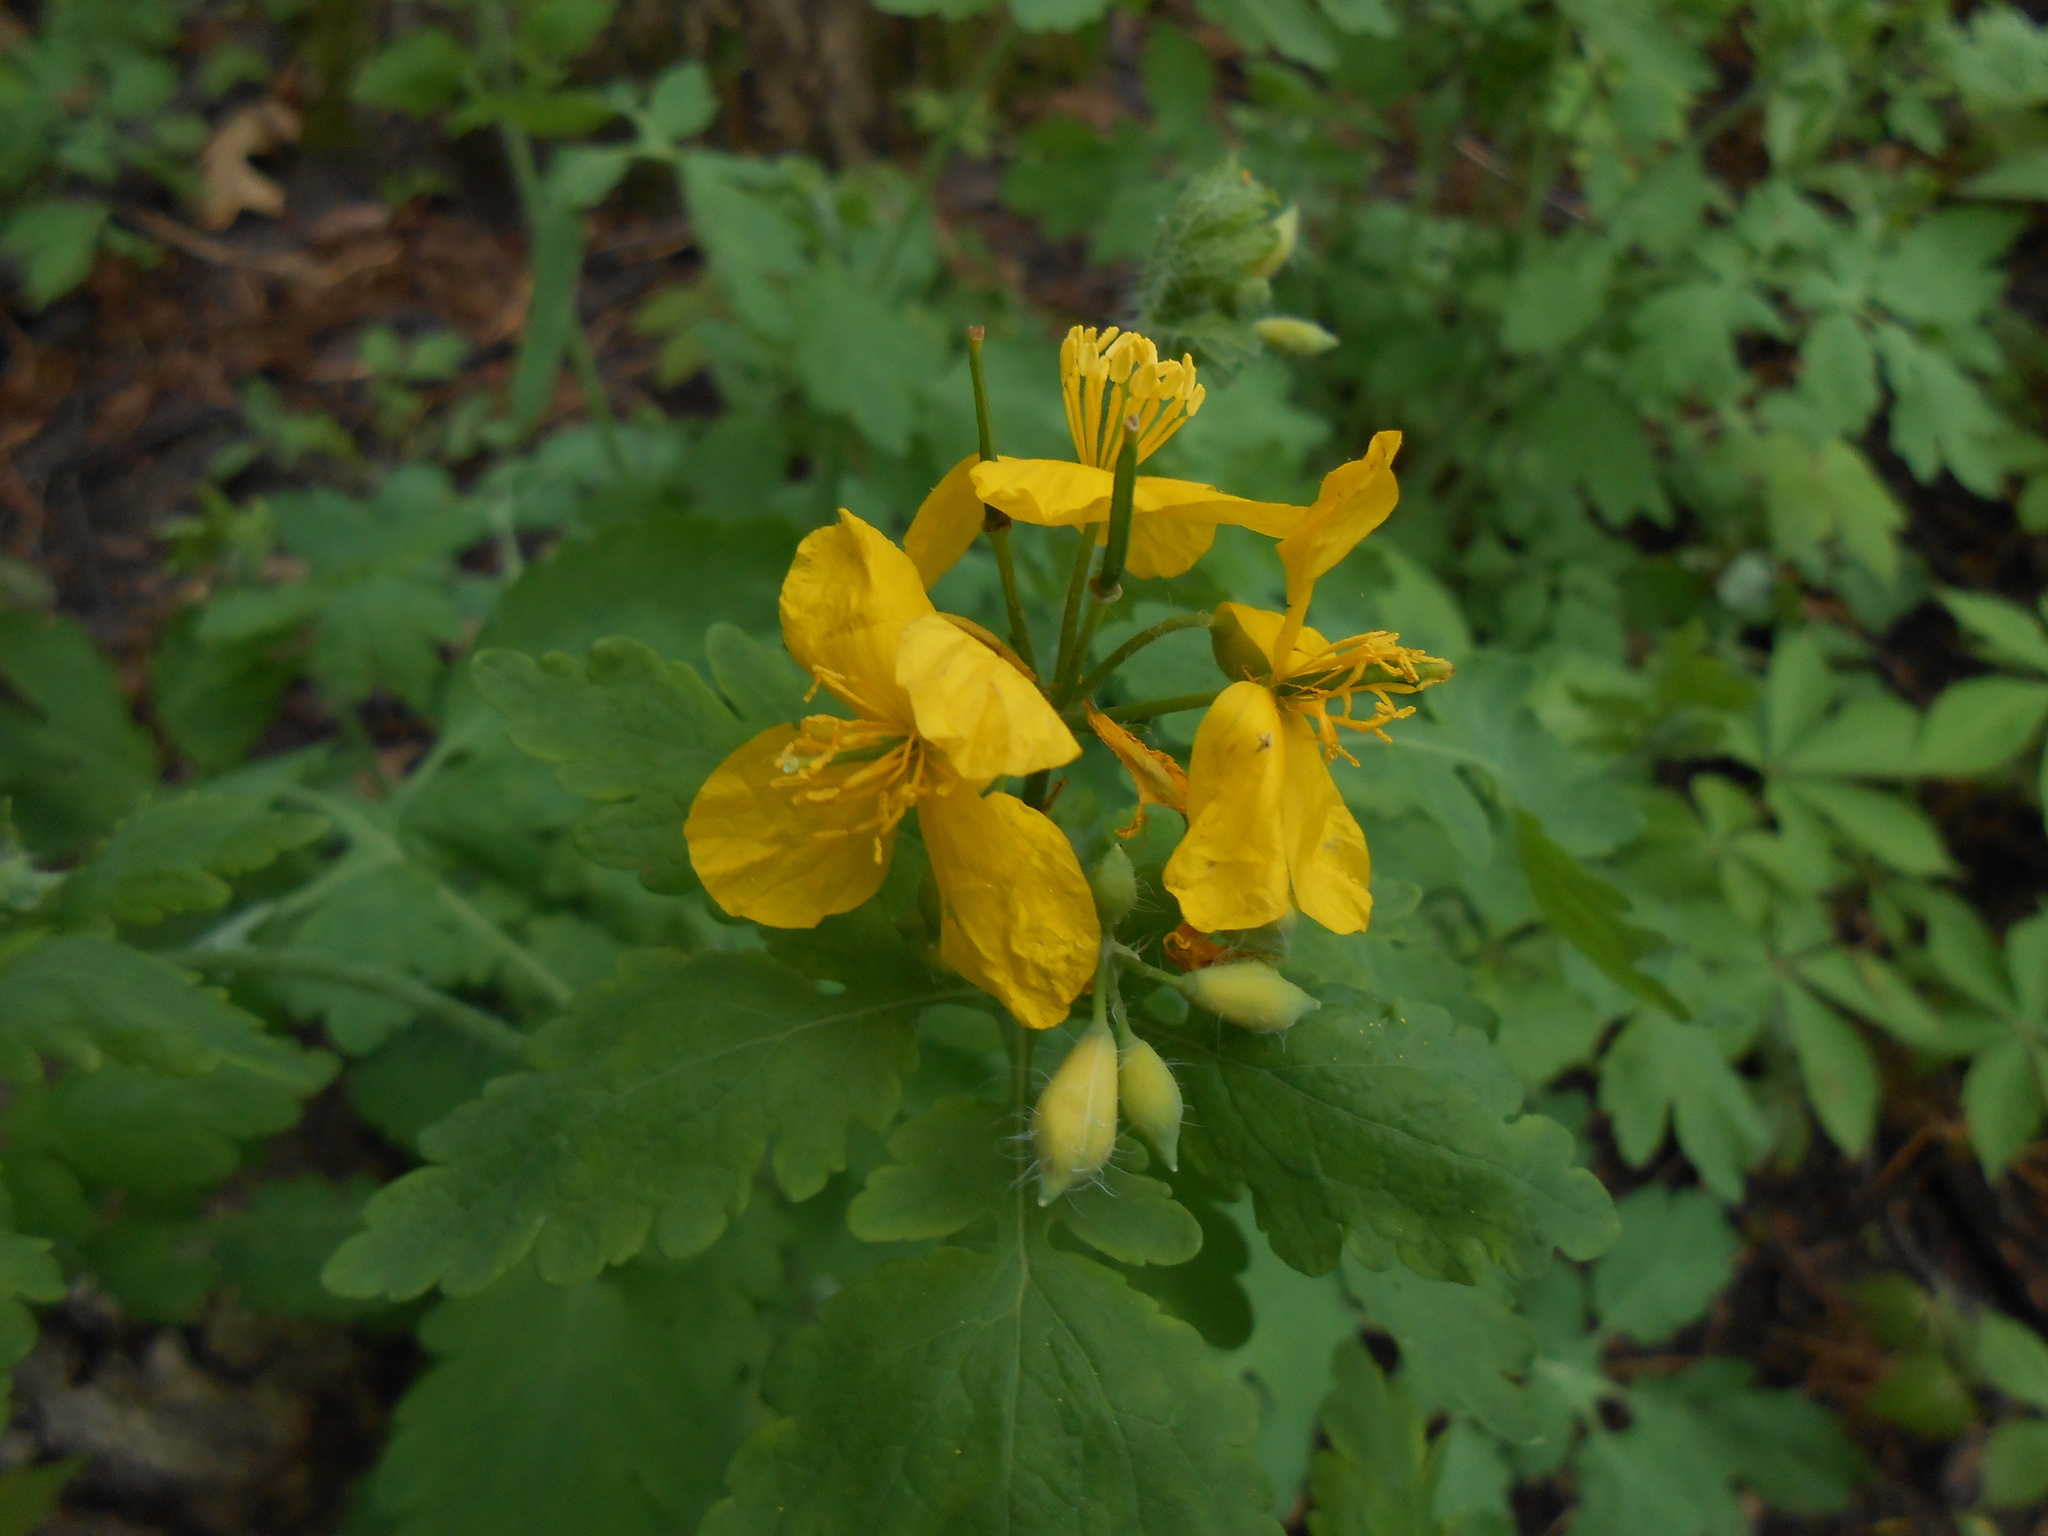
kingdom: Plantae
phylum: Tracheophyta
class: Magnoliopsida
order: Ranunculales
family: Papaveraceae
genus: Chelidonium
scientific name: Chelidonium majus
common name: Greater celandine
